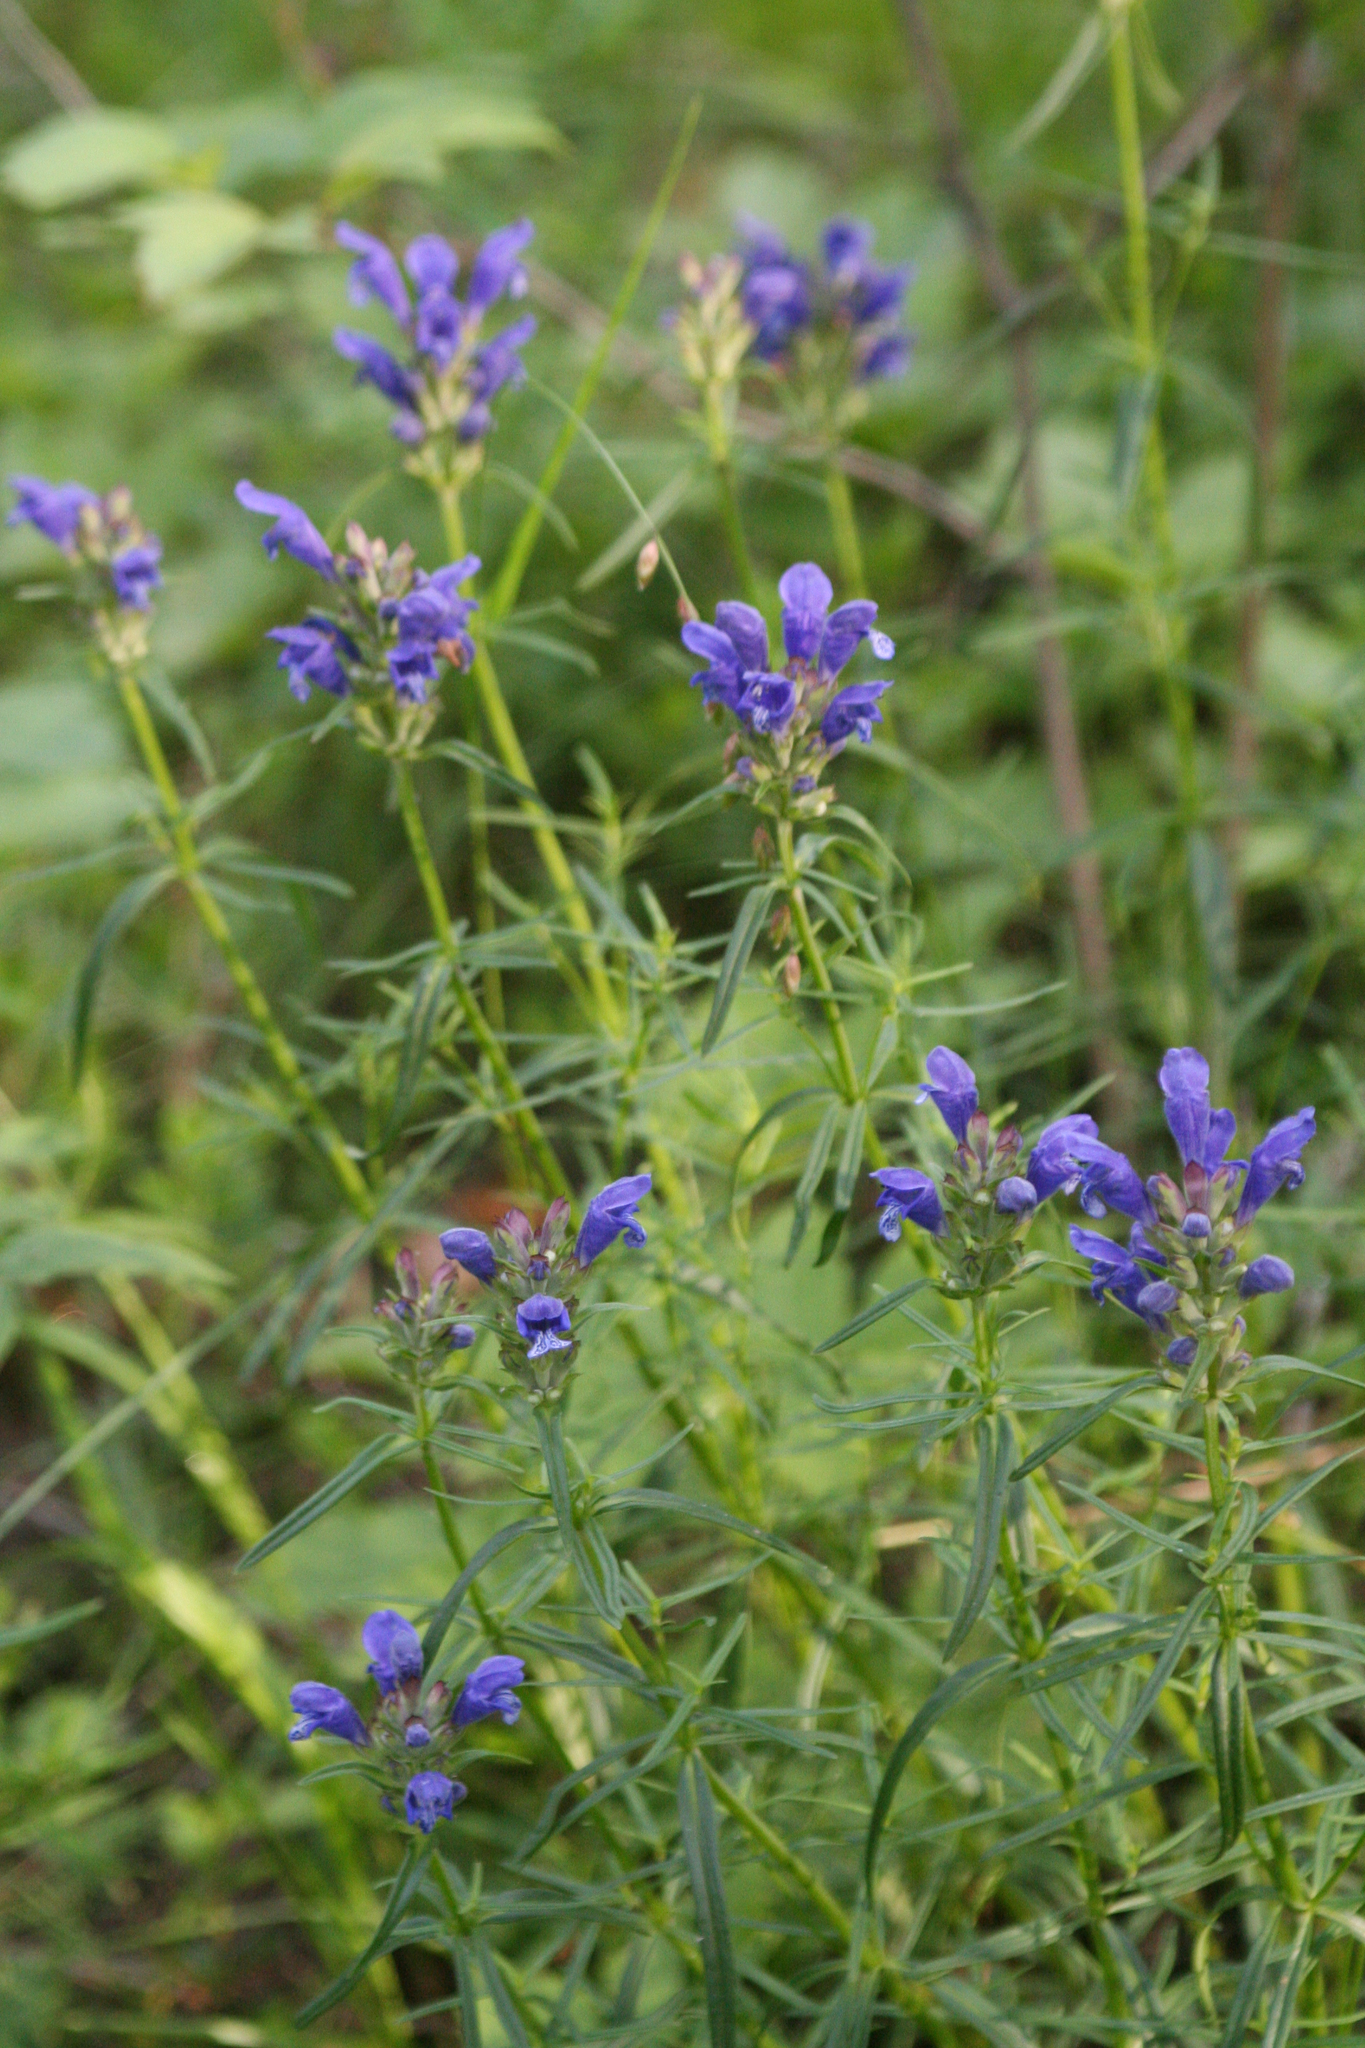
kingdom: Plantae
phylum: Tracheophyta
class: Magnoliopsida
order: Lamiales
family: Lamiaceae
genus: Dracocephalum
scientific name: Dracocephalum ruyschiana
